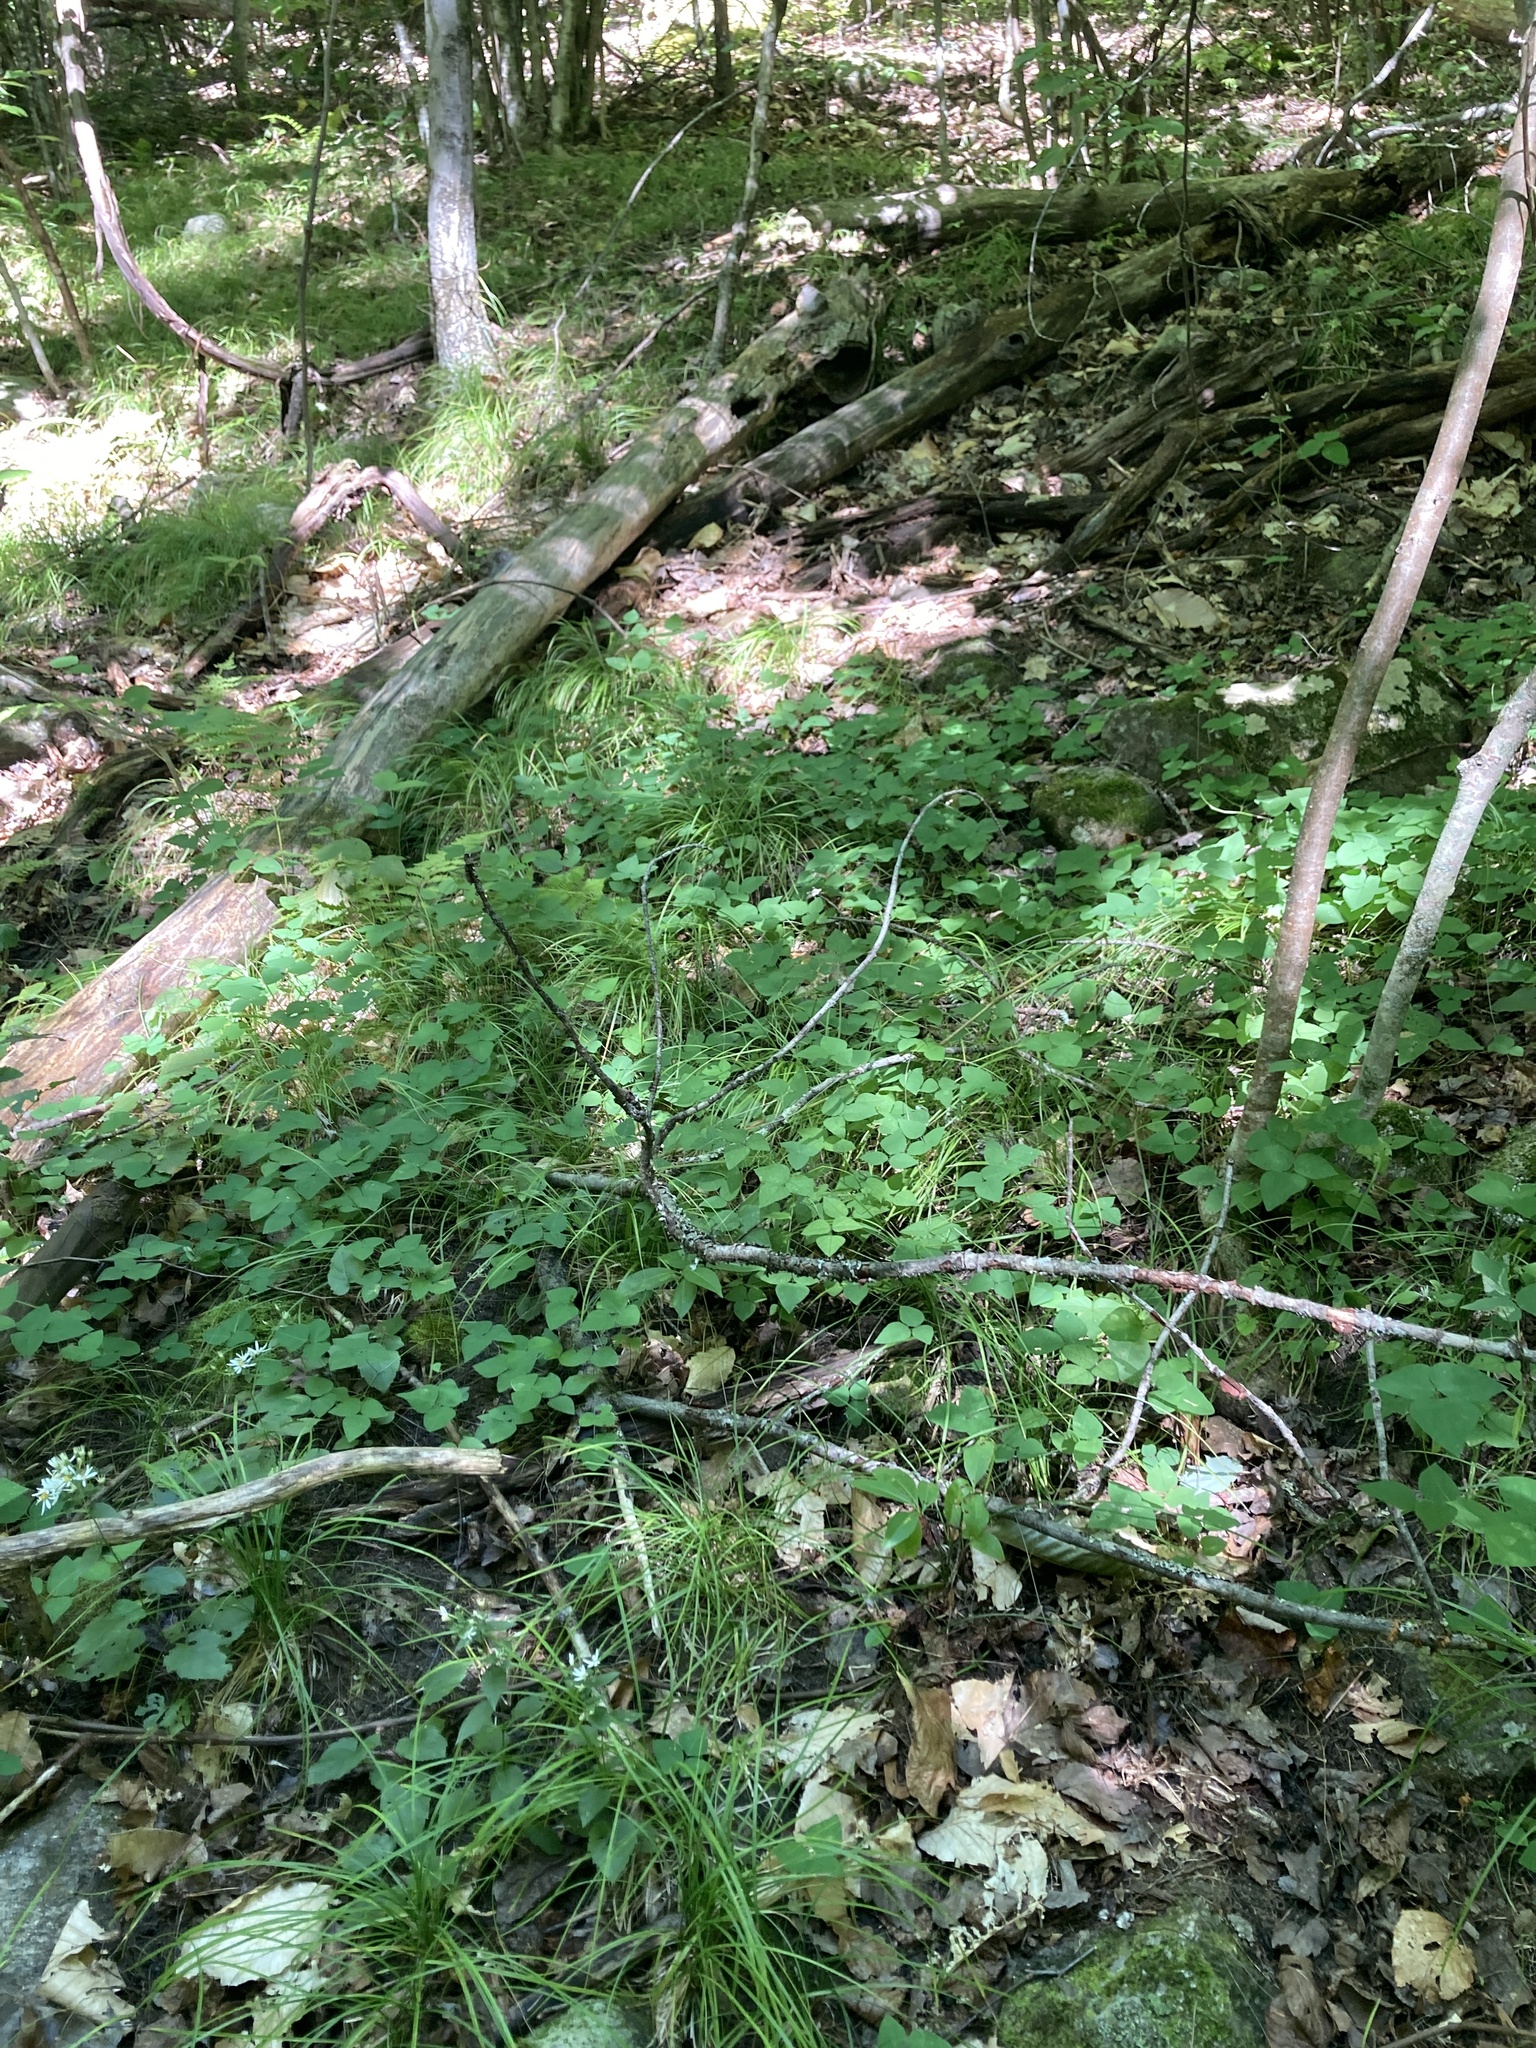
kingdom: Plantae
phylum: Tracheophyta
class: Magnoliopsida
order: Fabales
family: Fabaceae
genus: Amphicarpaea
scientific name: Amphicarpaea bracteata
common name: American hog peanut
